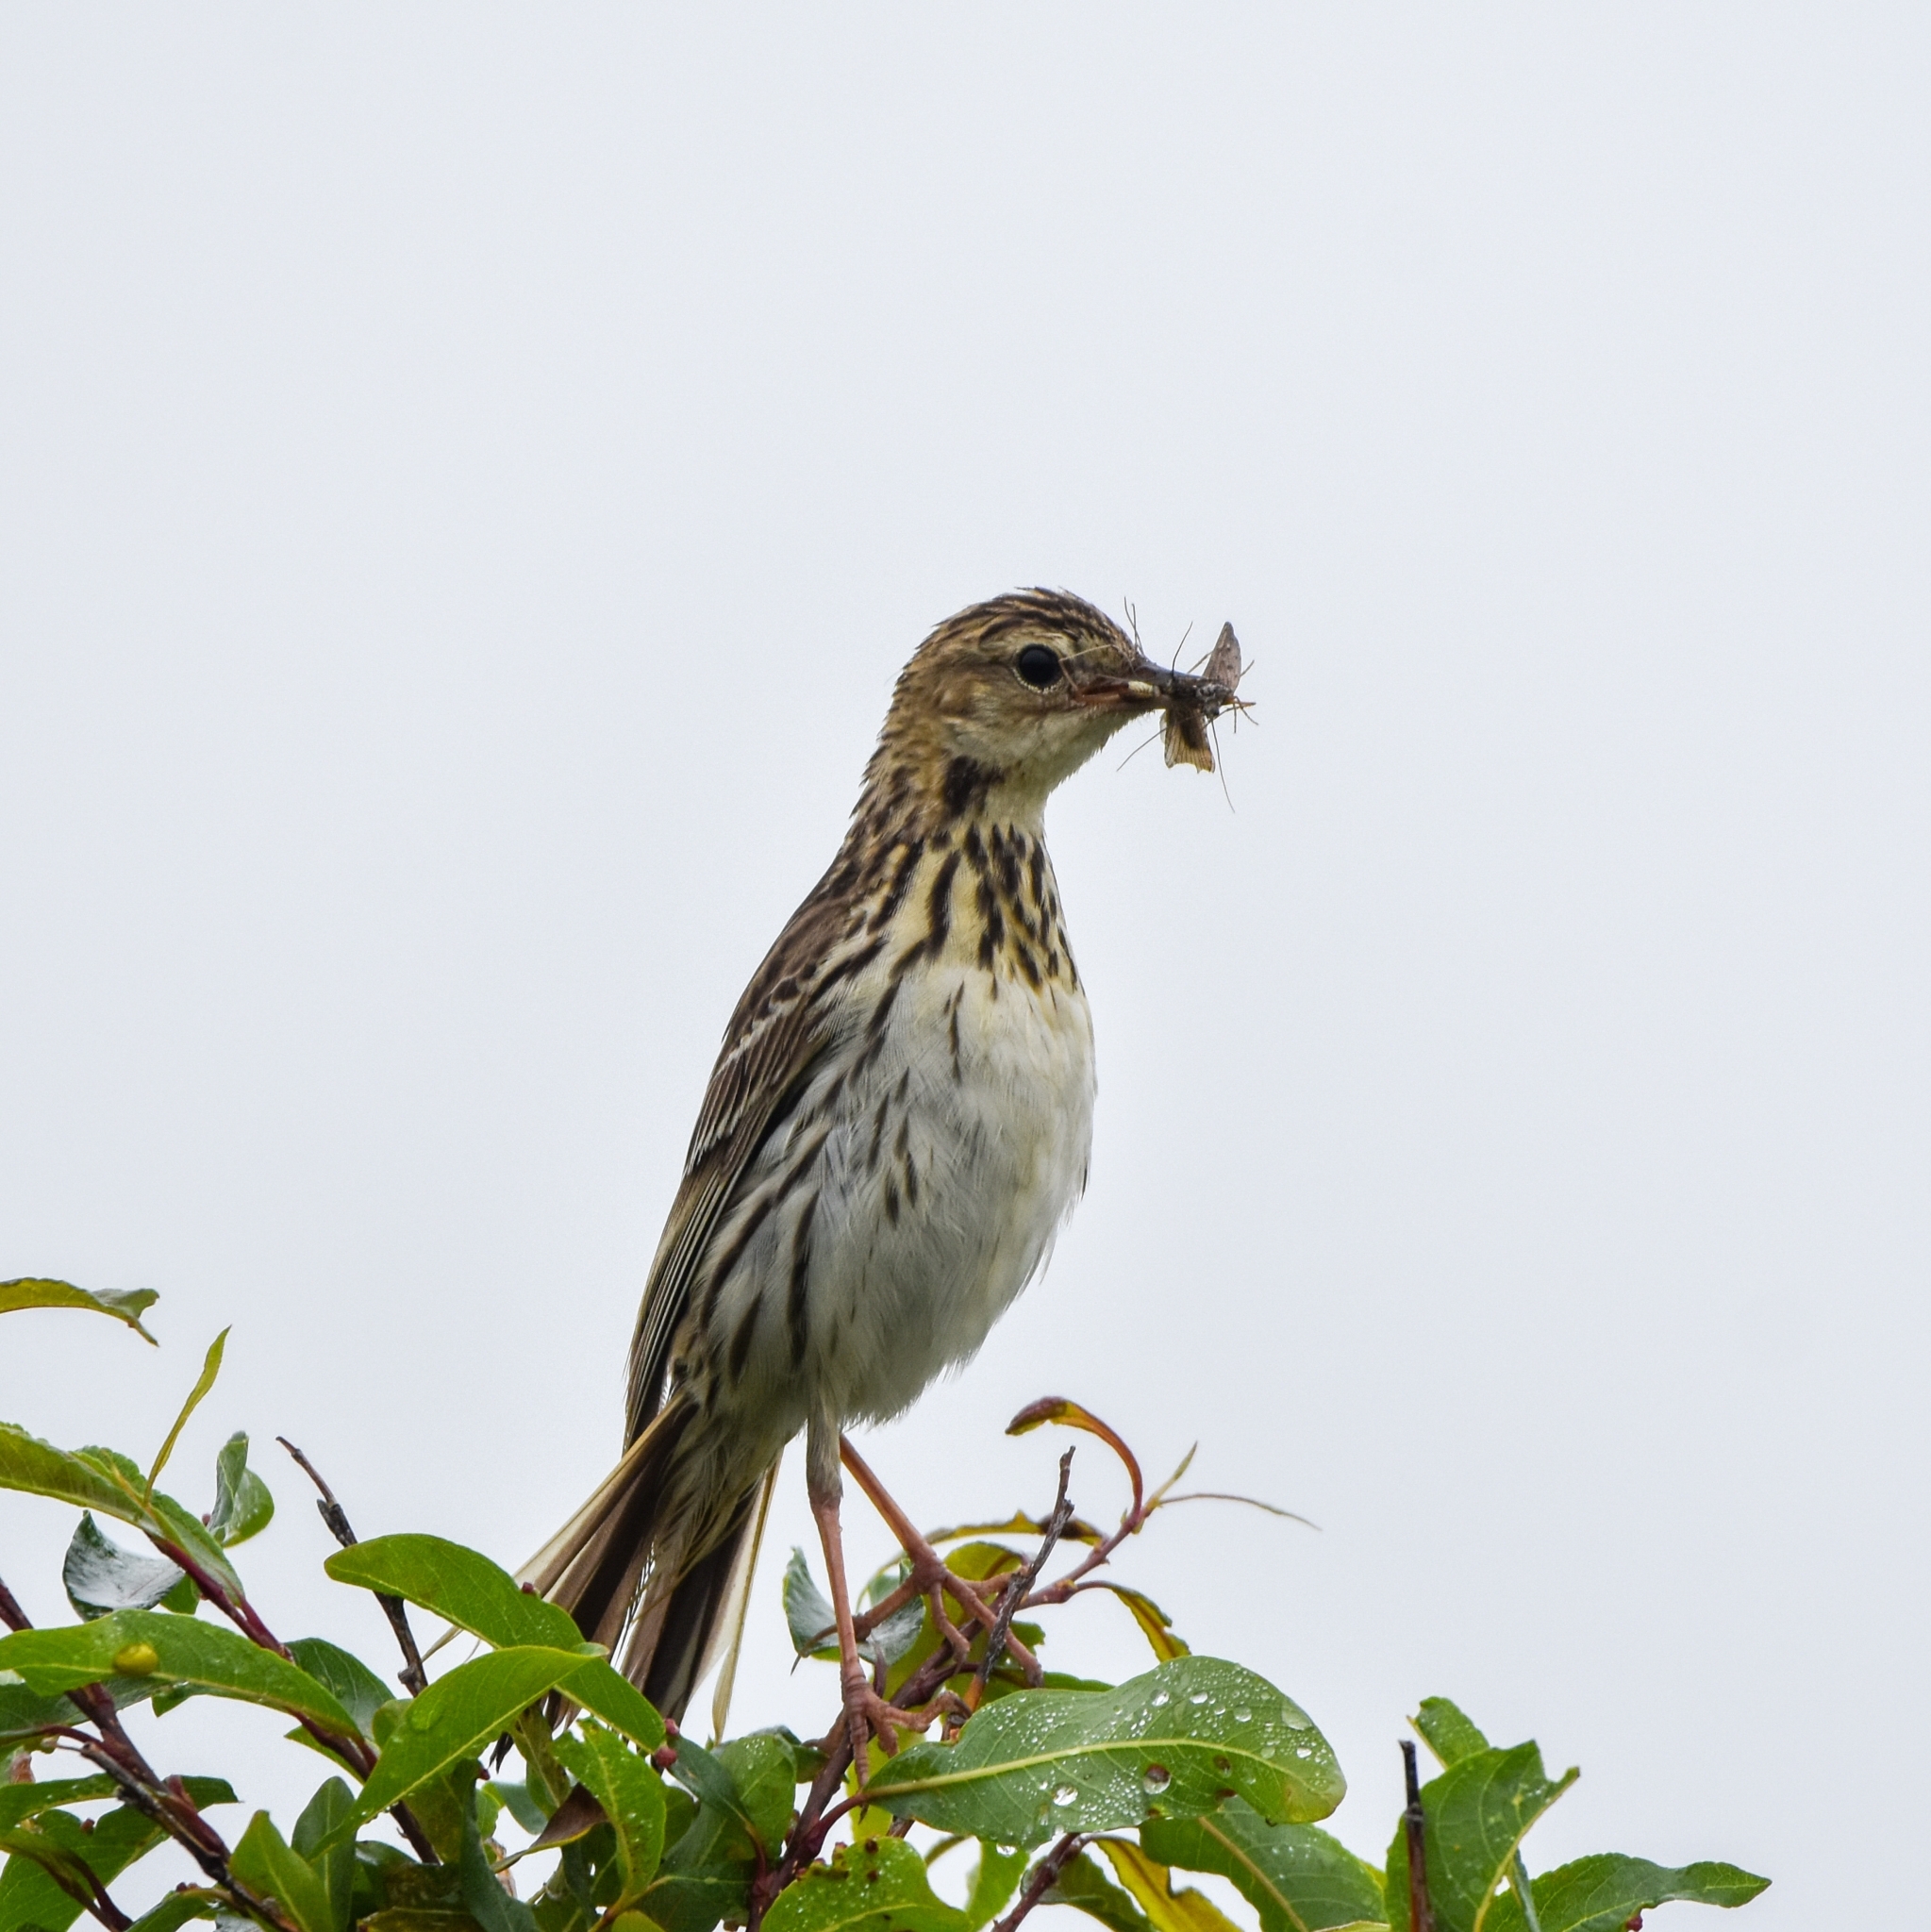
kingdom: Animalia
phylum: Chordata
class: Aves
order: Passeriformes
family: Motacillidae
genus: Anthus
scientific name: Anthus gustavi
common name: Pechora pipit
